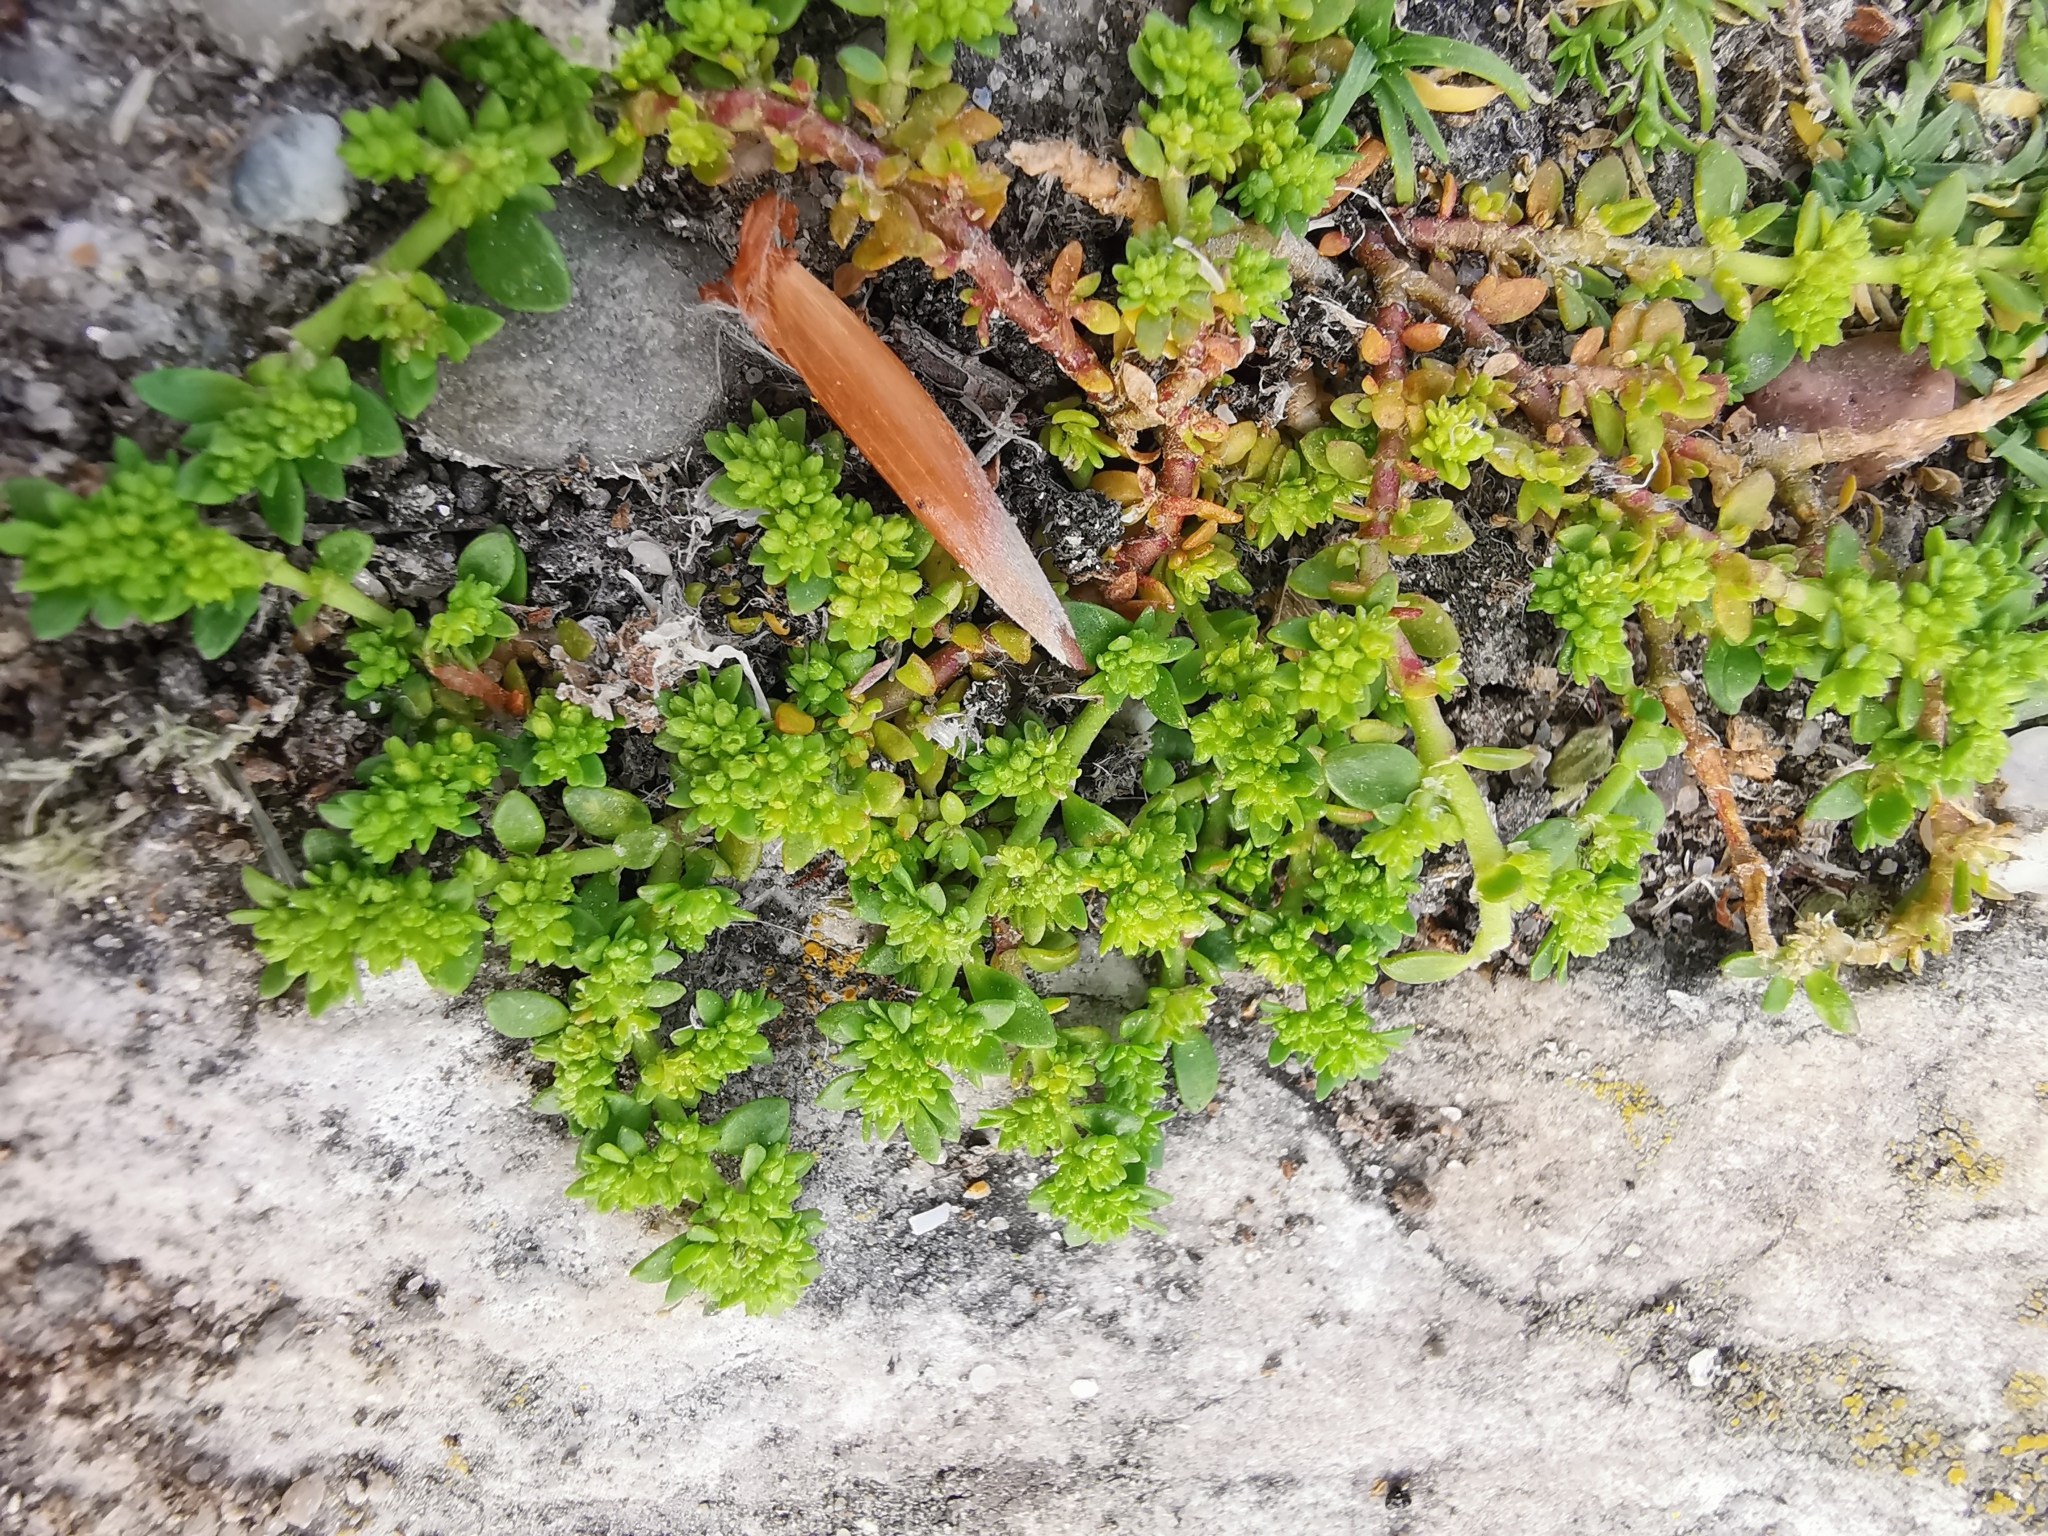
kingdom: Plantae
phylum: Tracheophyta
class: Magnoliopsida
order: Caryophyllales
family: Caryophyllaceae
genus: Herniaria
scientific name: Herniaria glabra
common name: Smooth rupturewort
